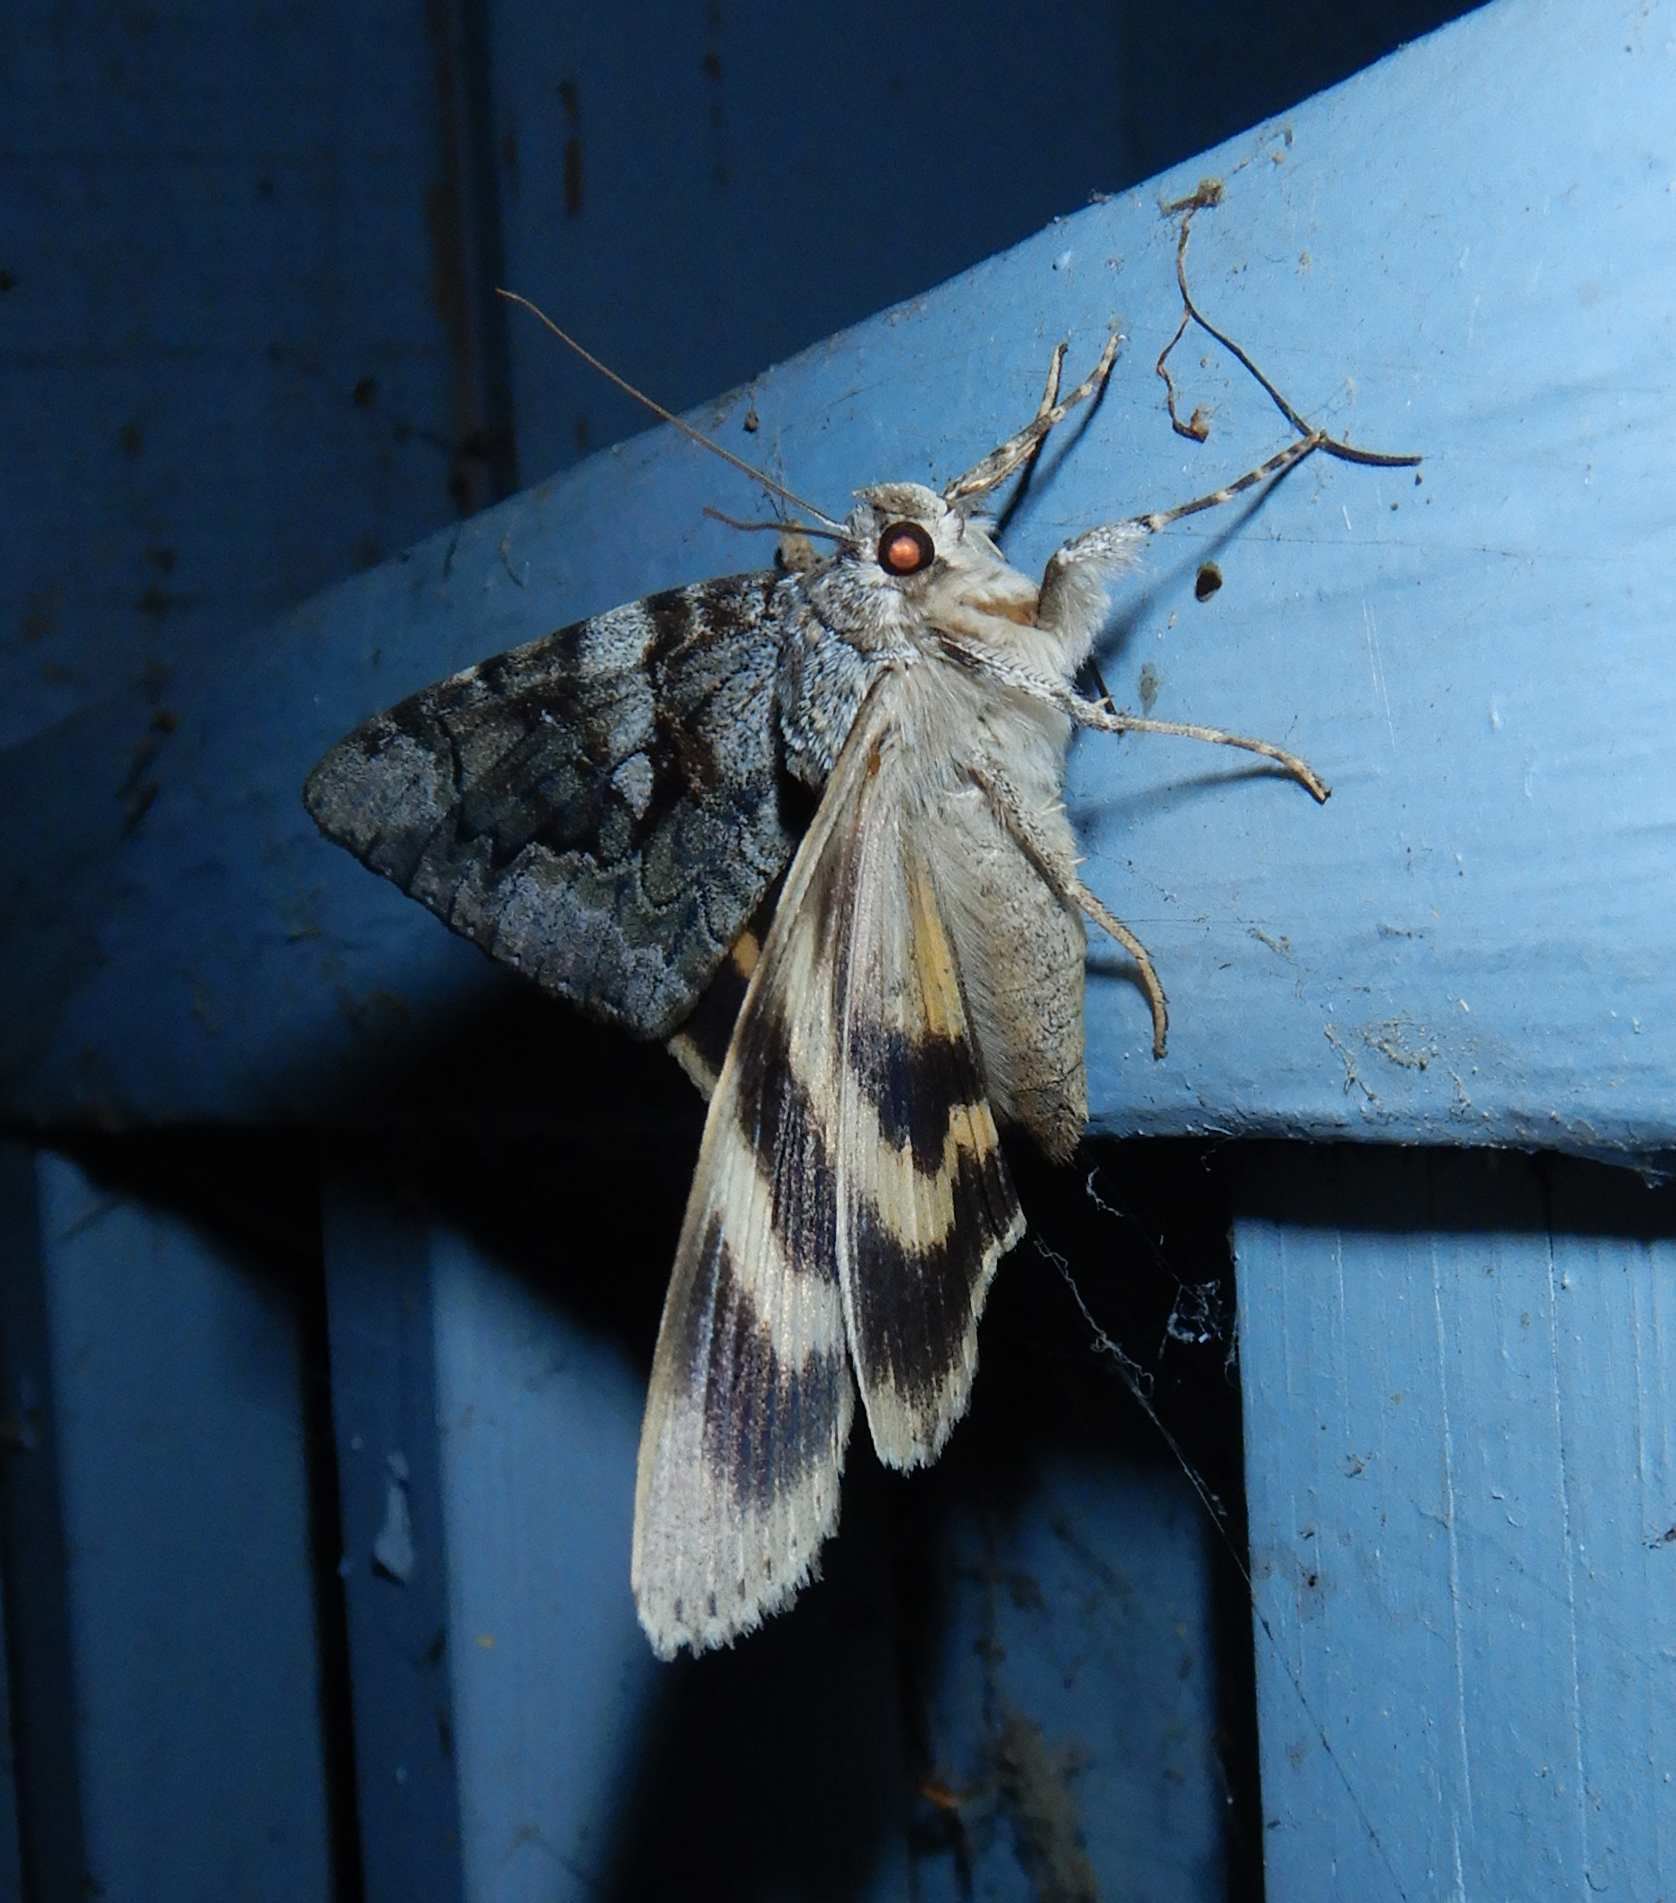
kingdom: Animalia
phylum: Arthropoda
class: Insecta
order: Lepidoptera
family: Erebidae
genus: Catocala
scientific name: Catocala cerogama
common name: Yellow banded underwing
